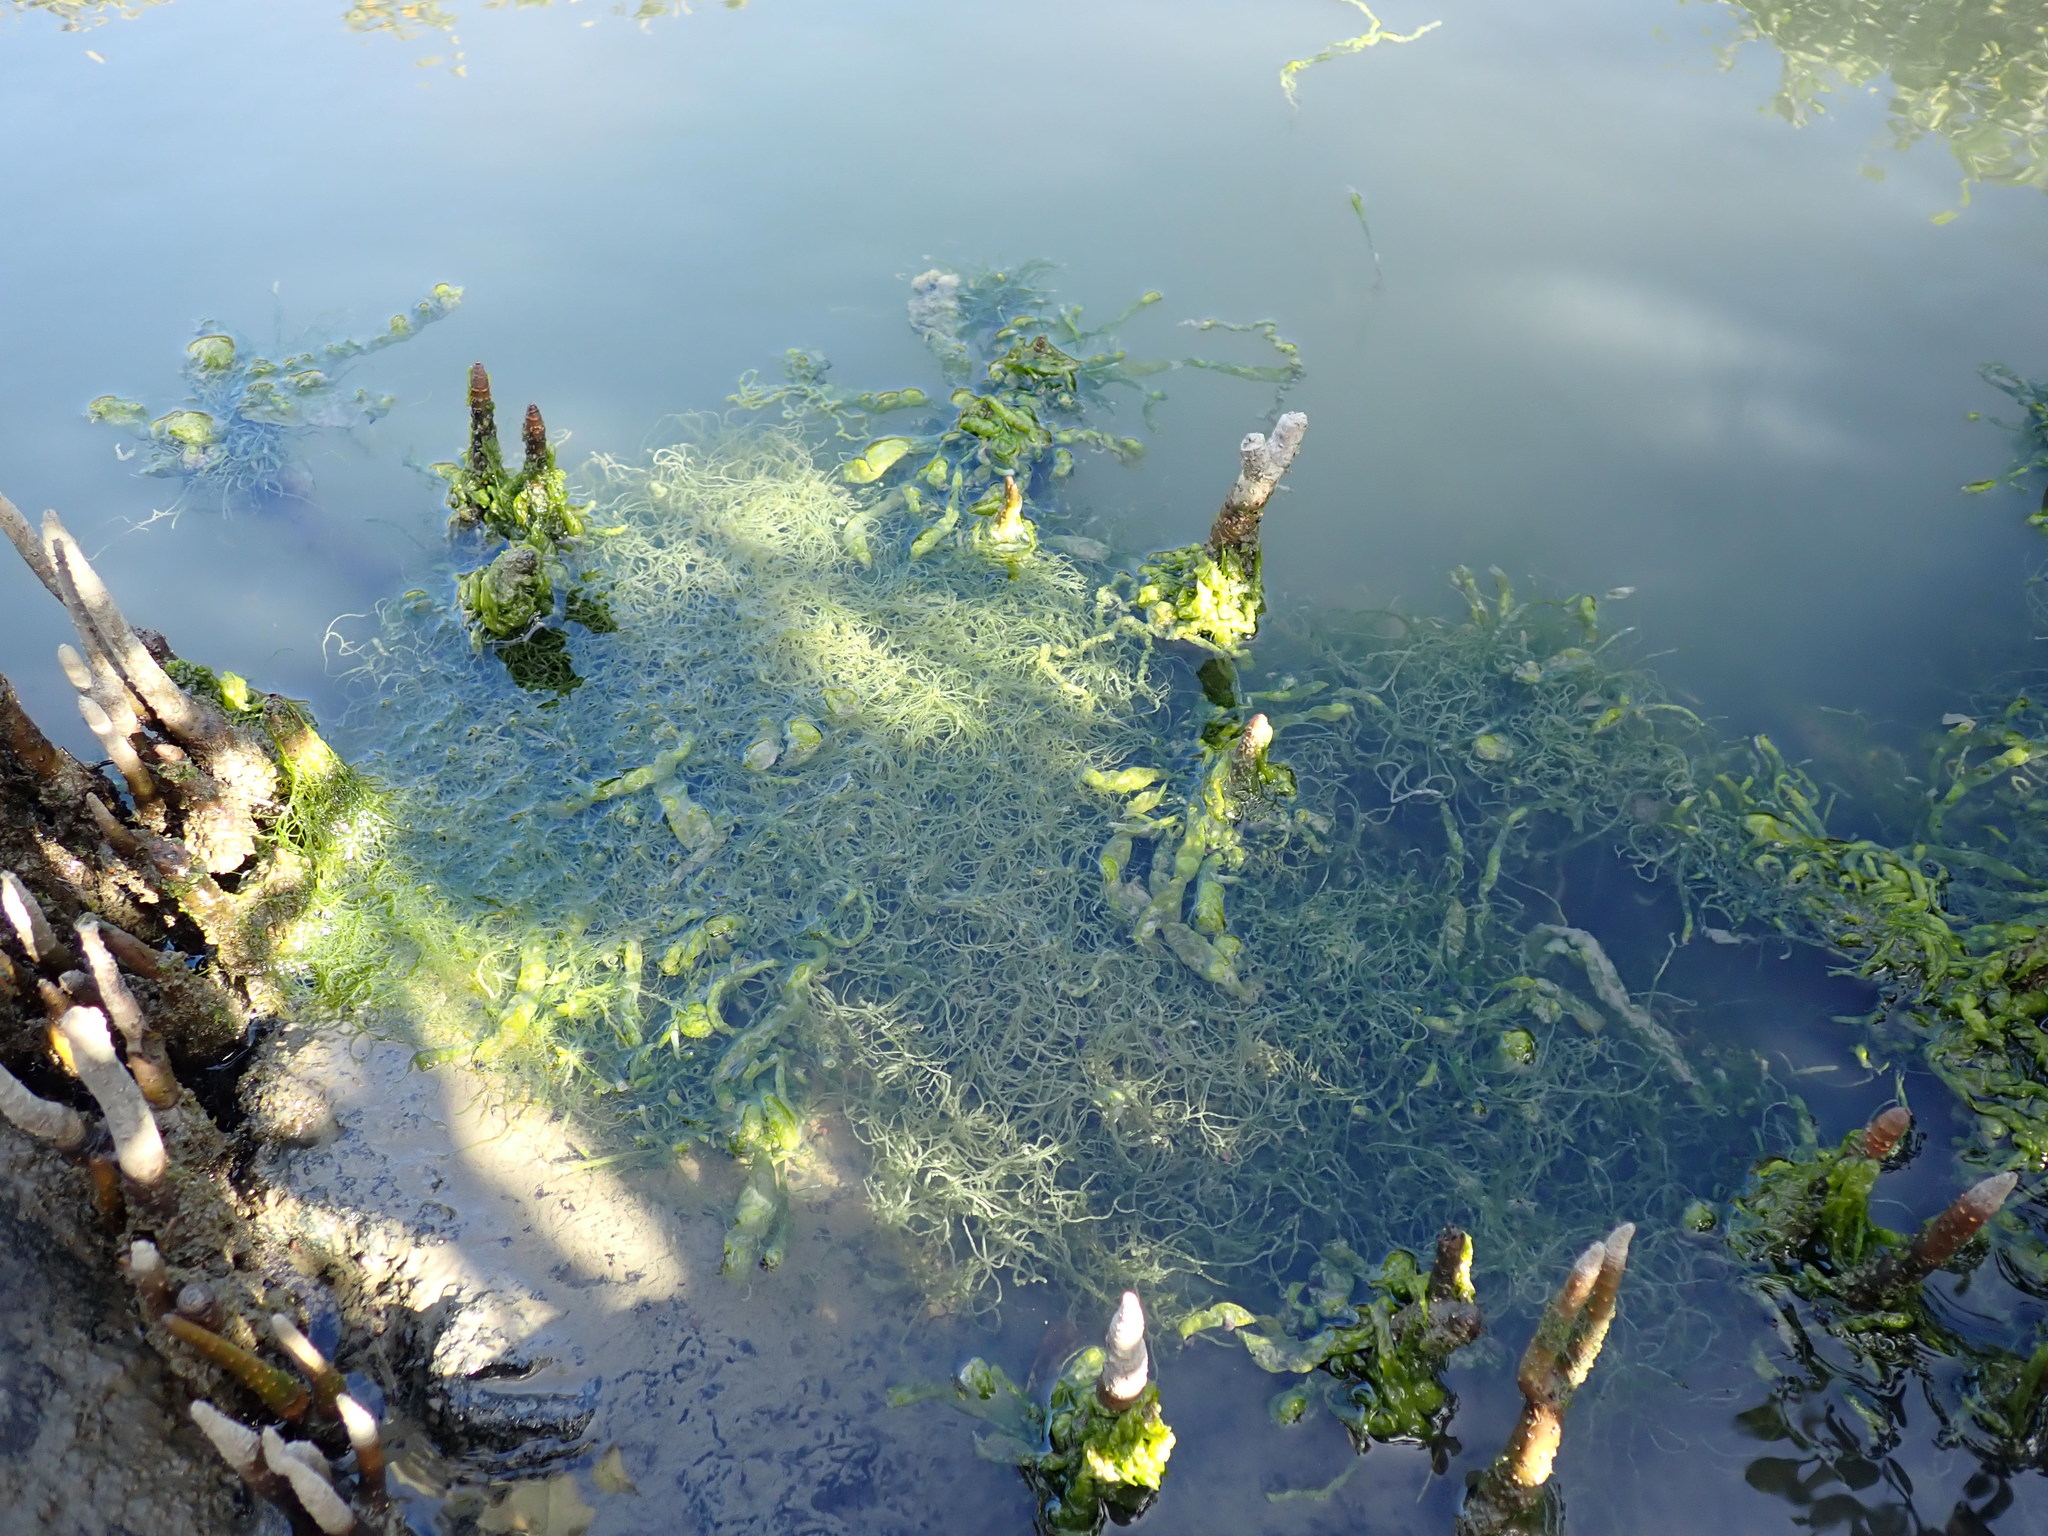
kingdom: Plantae
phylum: Chlorophyta
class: Ulvophyceae
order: Ulvales
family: Ulvaceae
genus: Ulva
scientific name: Ulva intestinalis
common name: Gut weed
